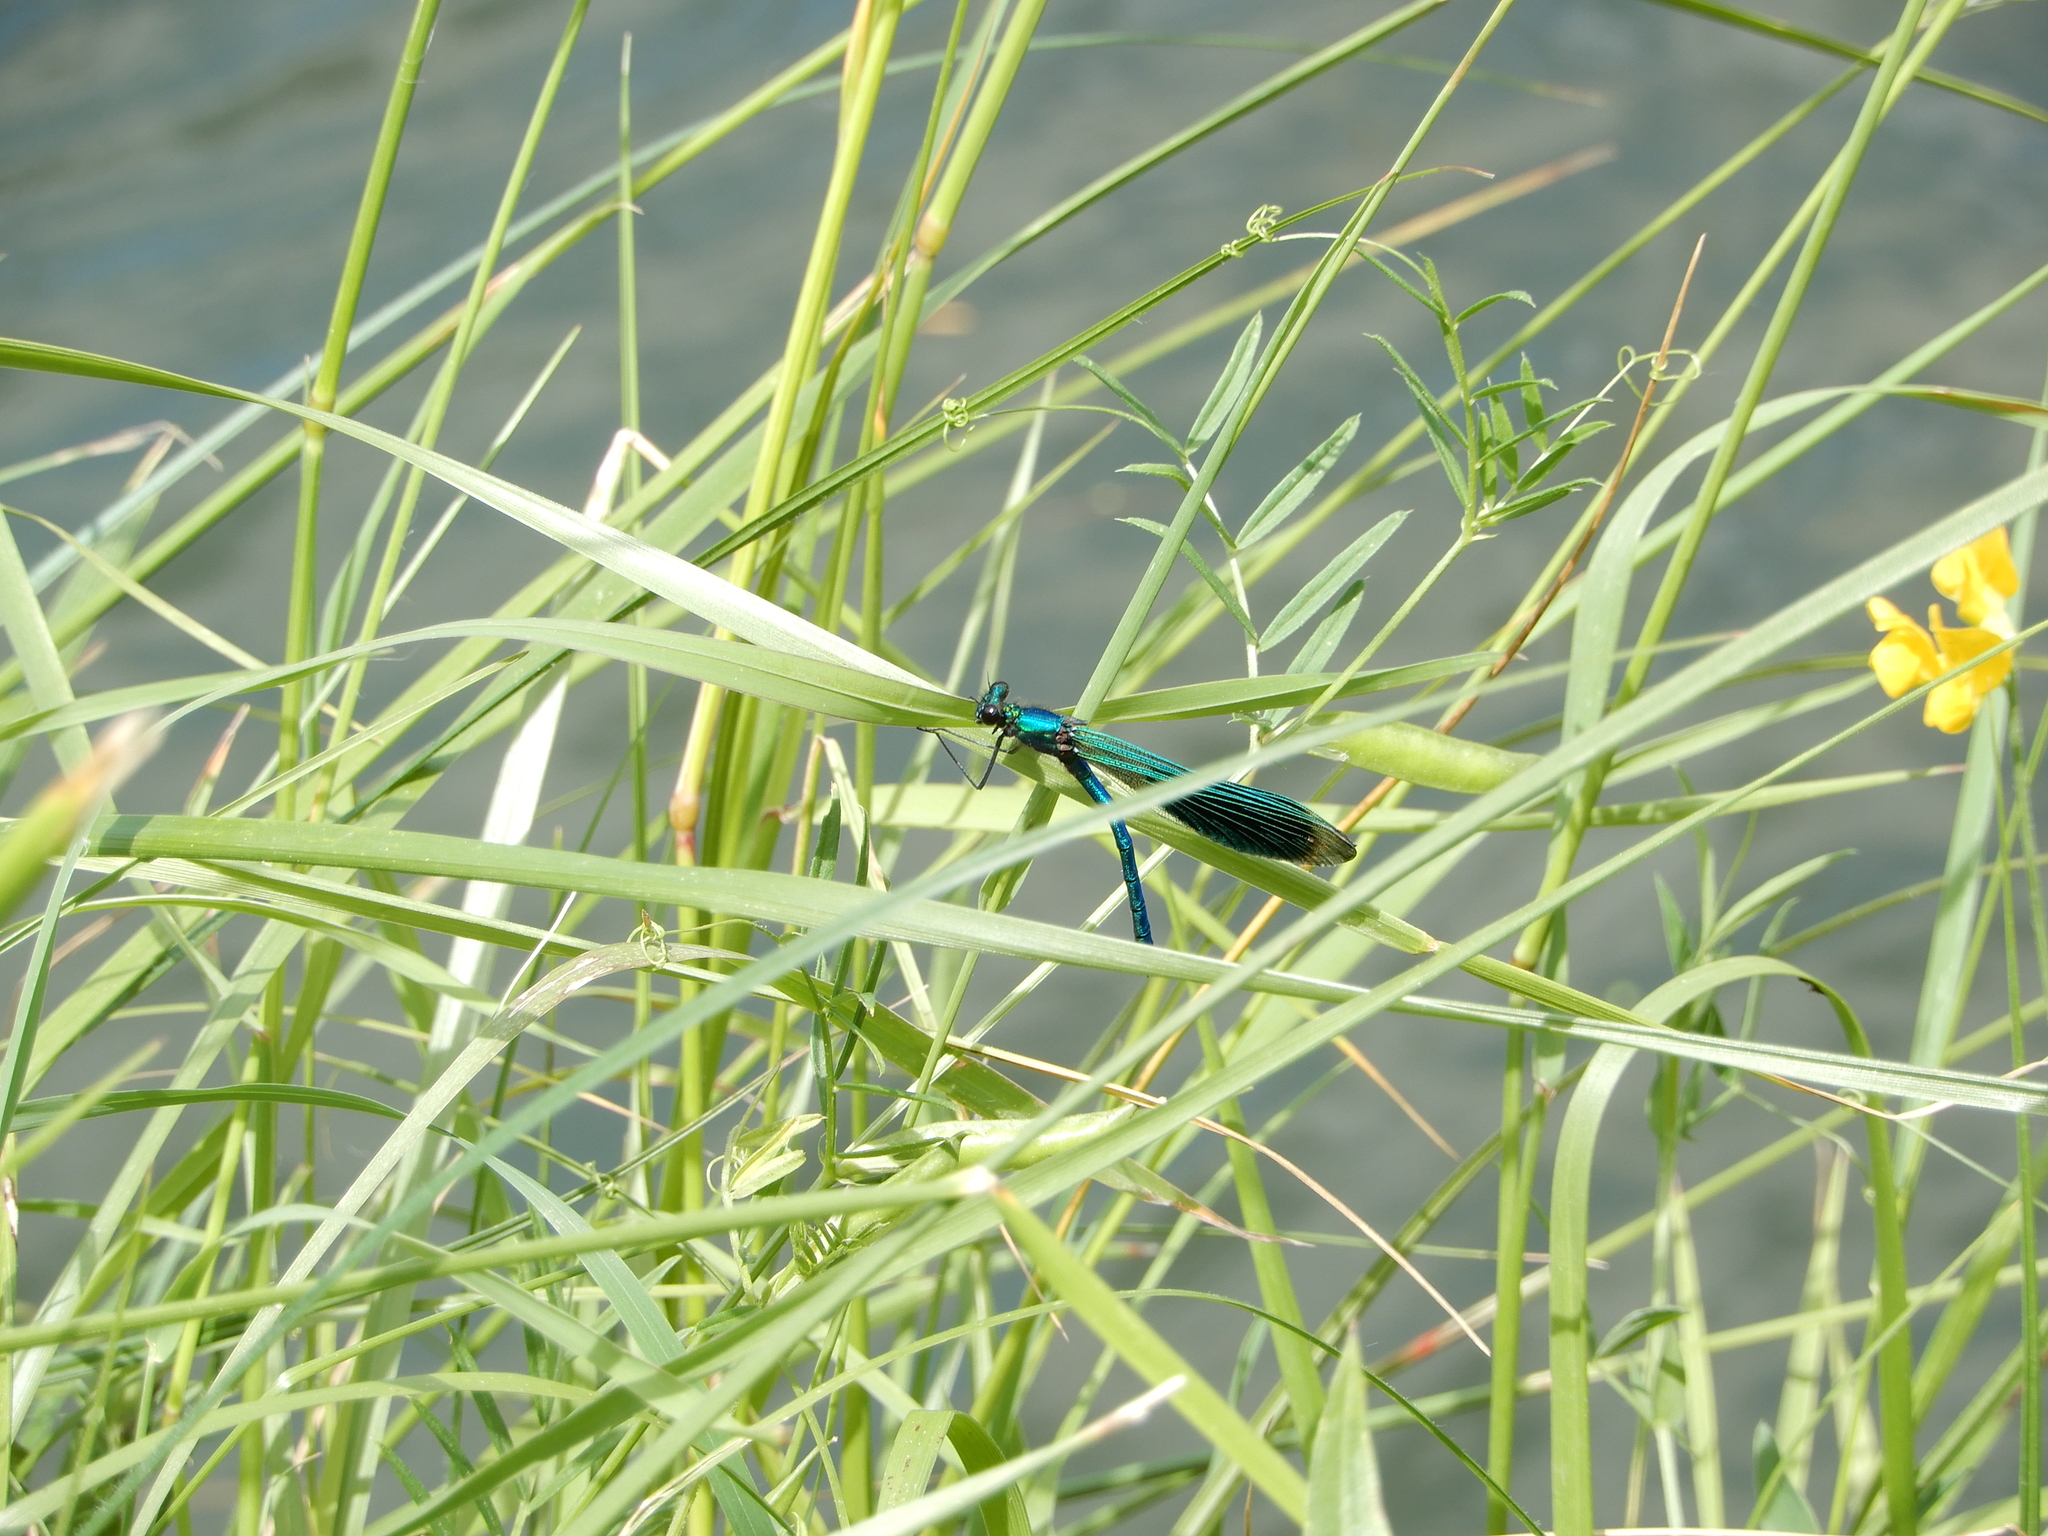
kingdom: Animalia
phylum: Arthropoda
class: Insecta
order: Odonata
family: Calopterygidae
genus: Calopteryx
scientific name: Calopteryx splendens
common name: Banded demoiselle
